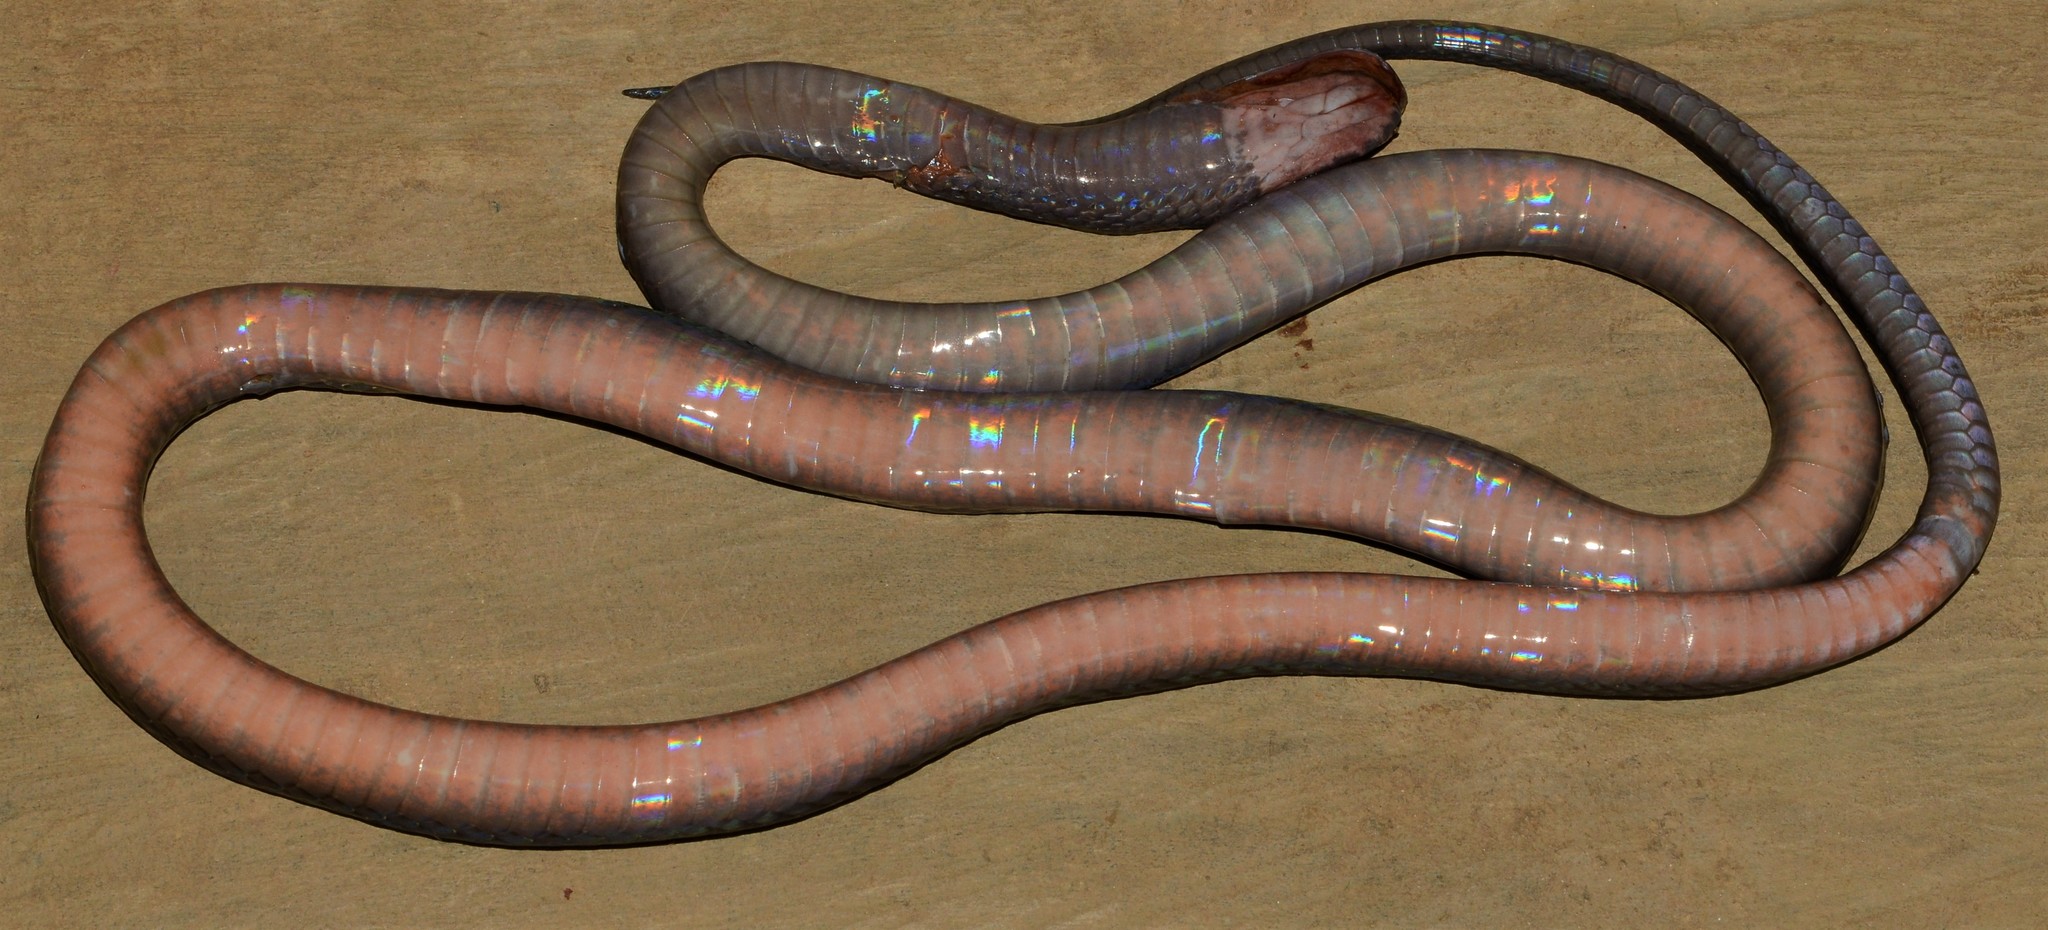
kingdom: Animalia
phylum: Chordata
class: Squamata
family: Lamprophiidae
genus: Bothrophthalmus
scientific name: Bothrophthalmus brunneus
